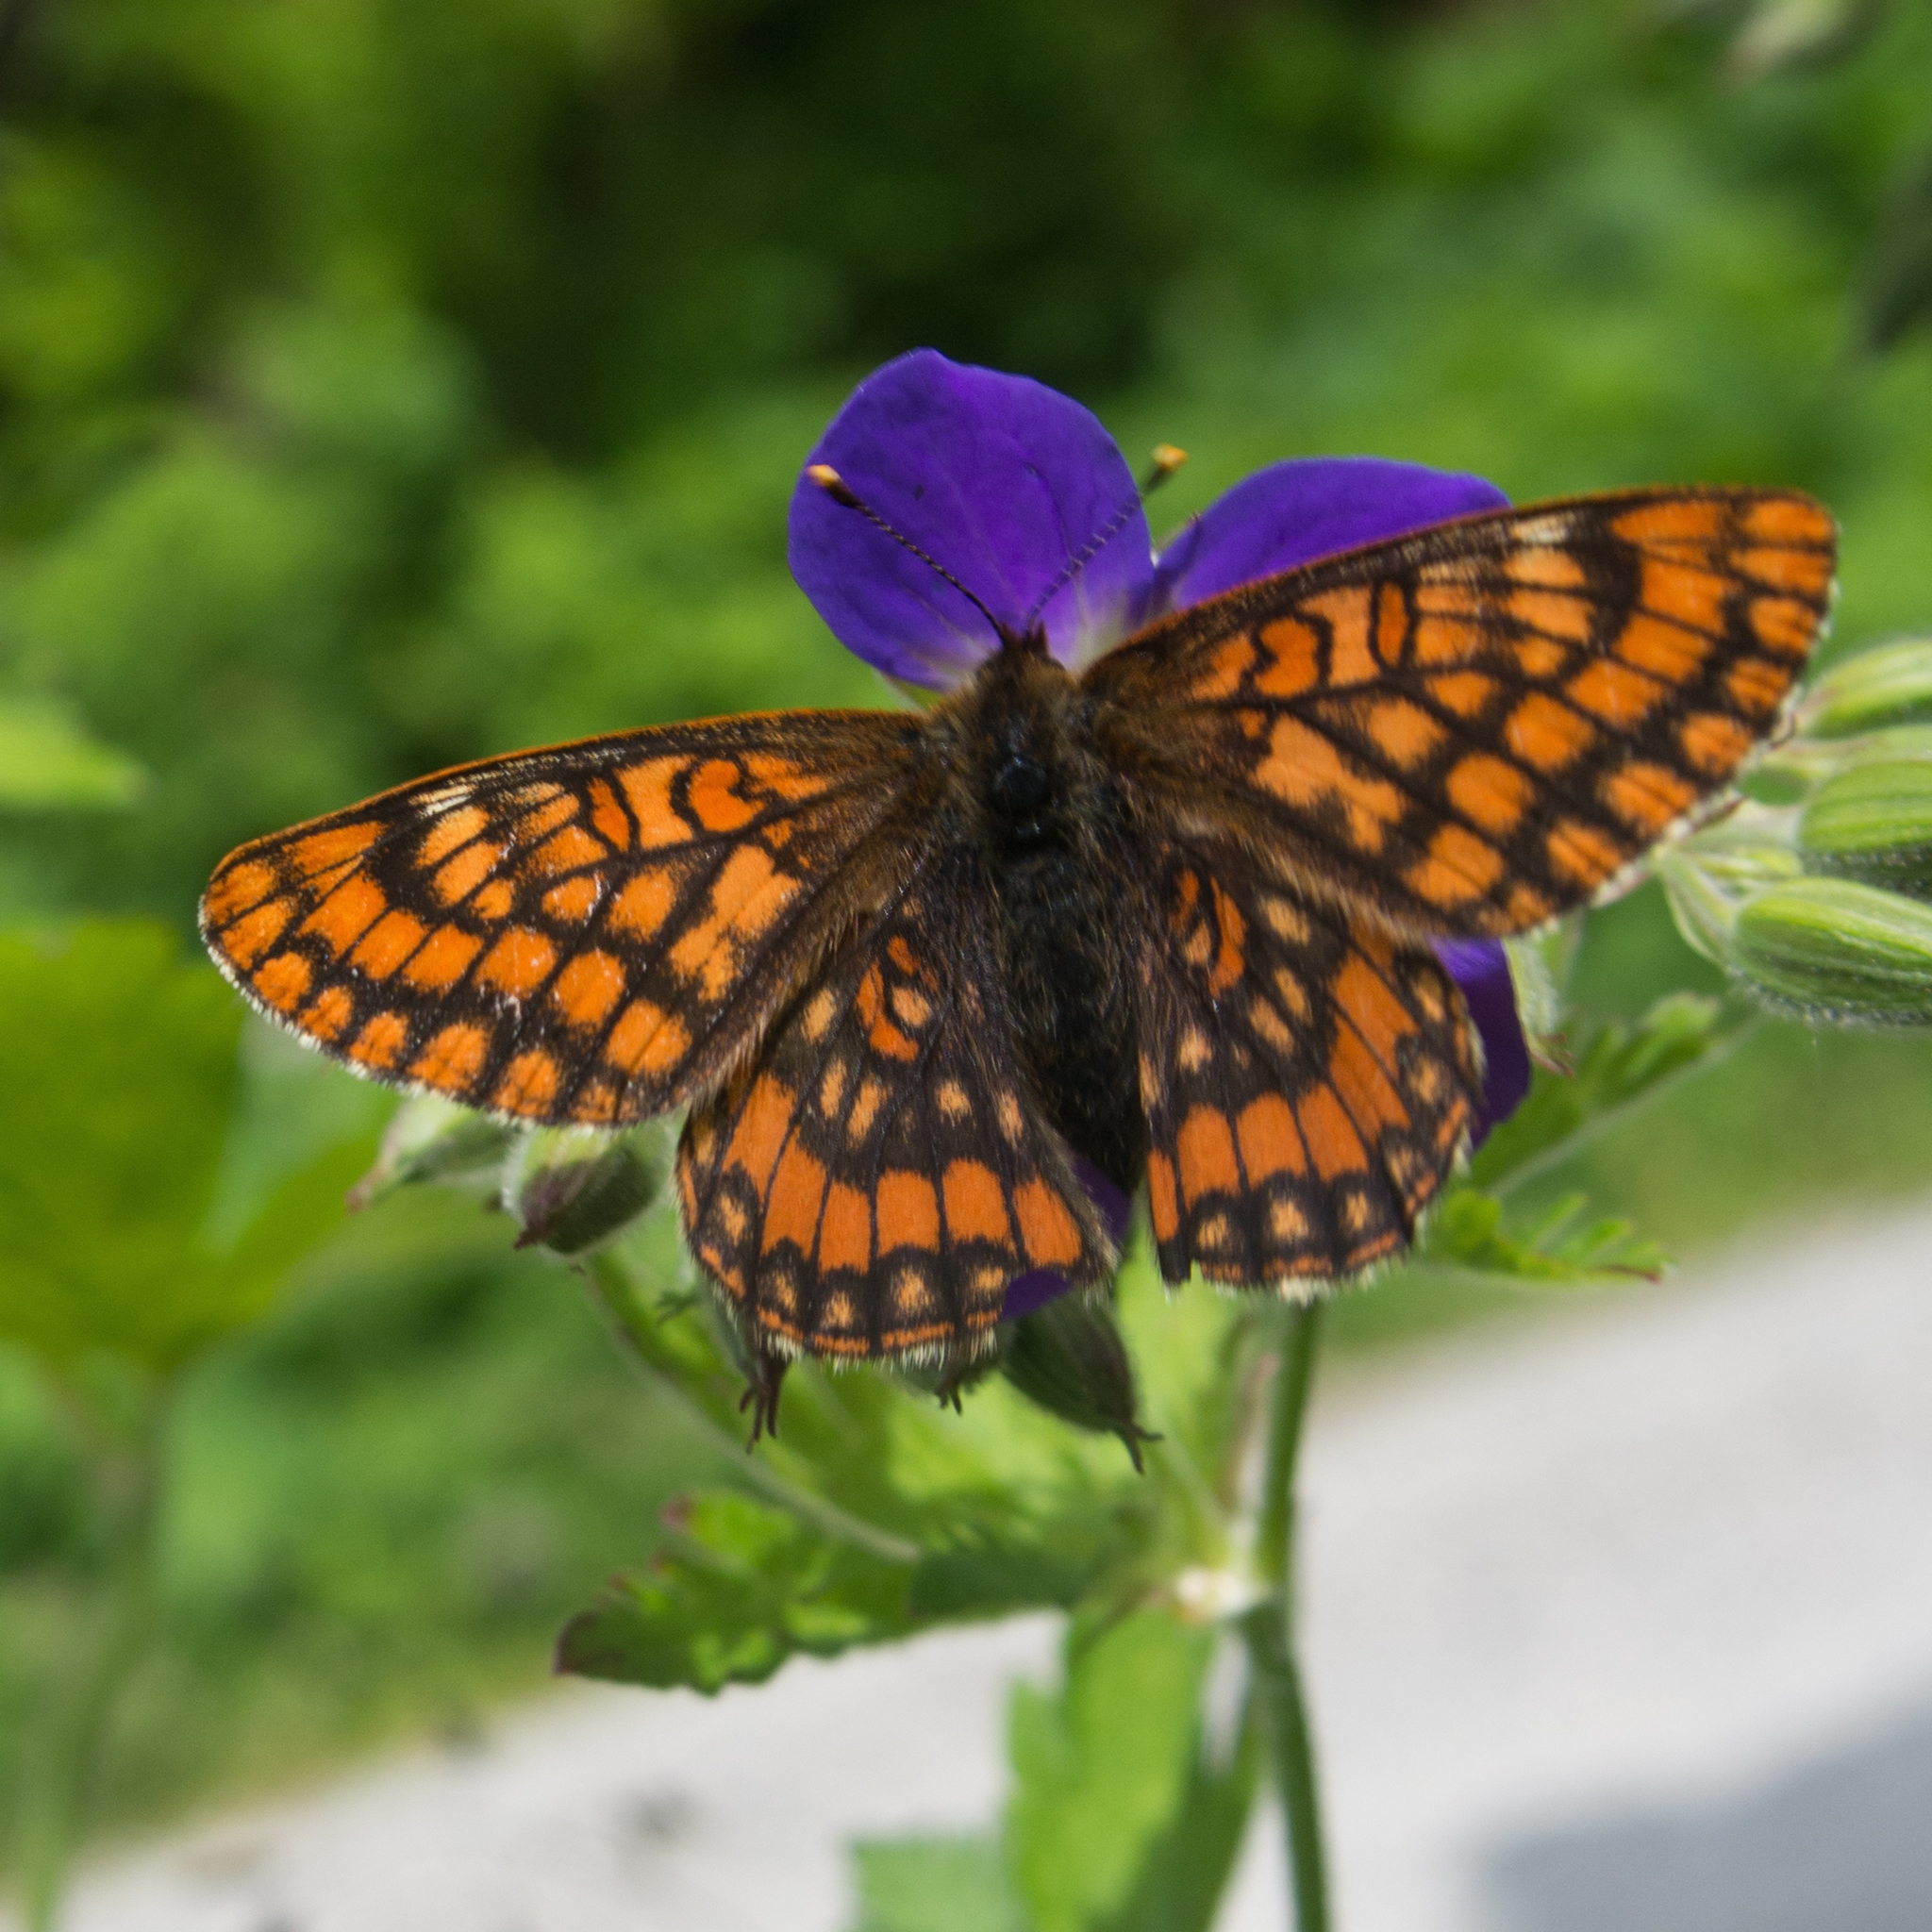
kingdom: Animalia
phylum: Arthropoda
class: Insecta
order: Lepidoptera
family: Nymphalidae
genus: Hypodryas
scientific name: Hypodryas intermedia
